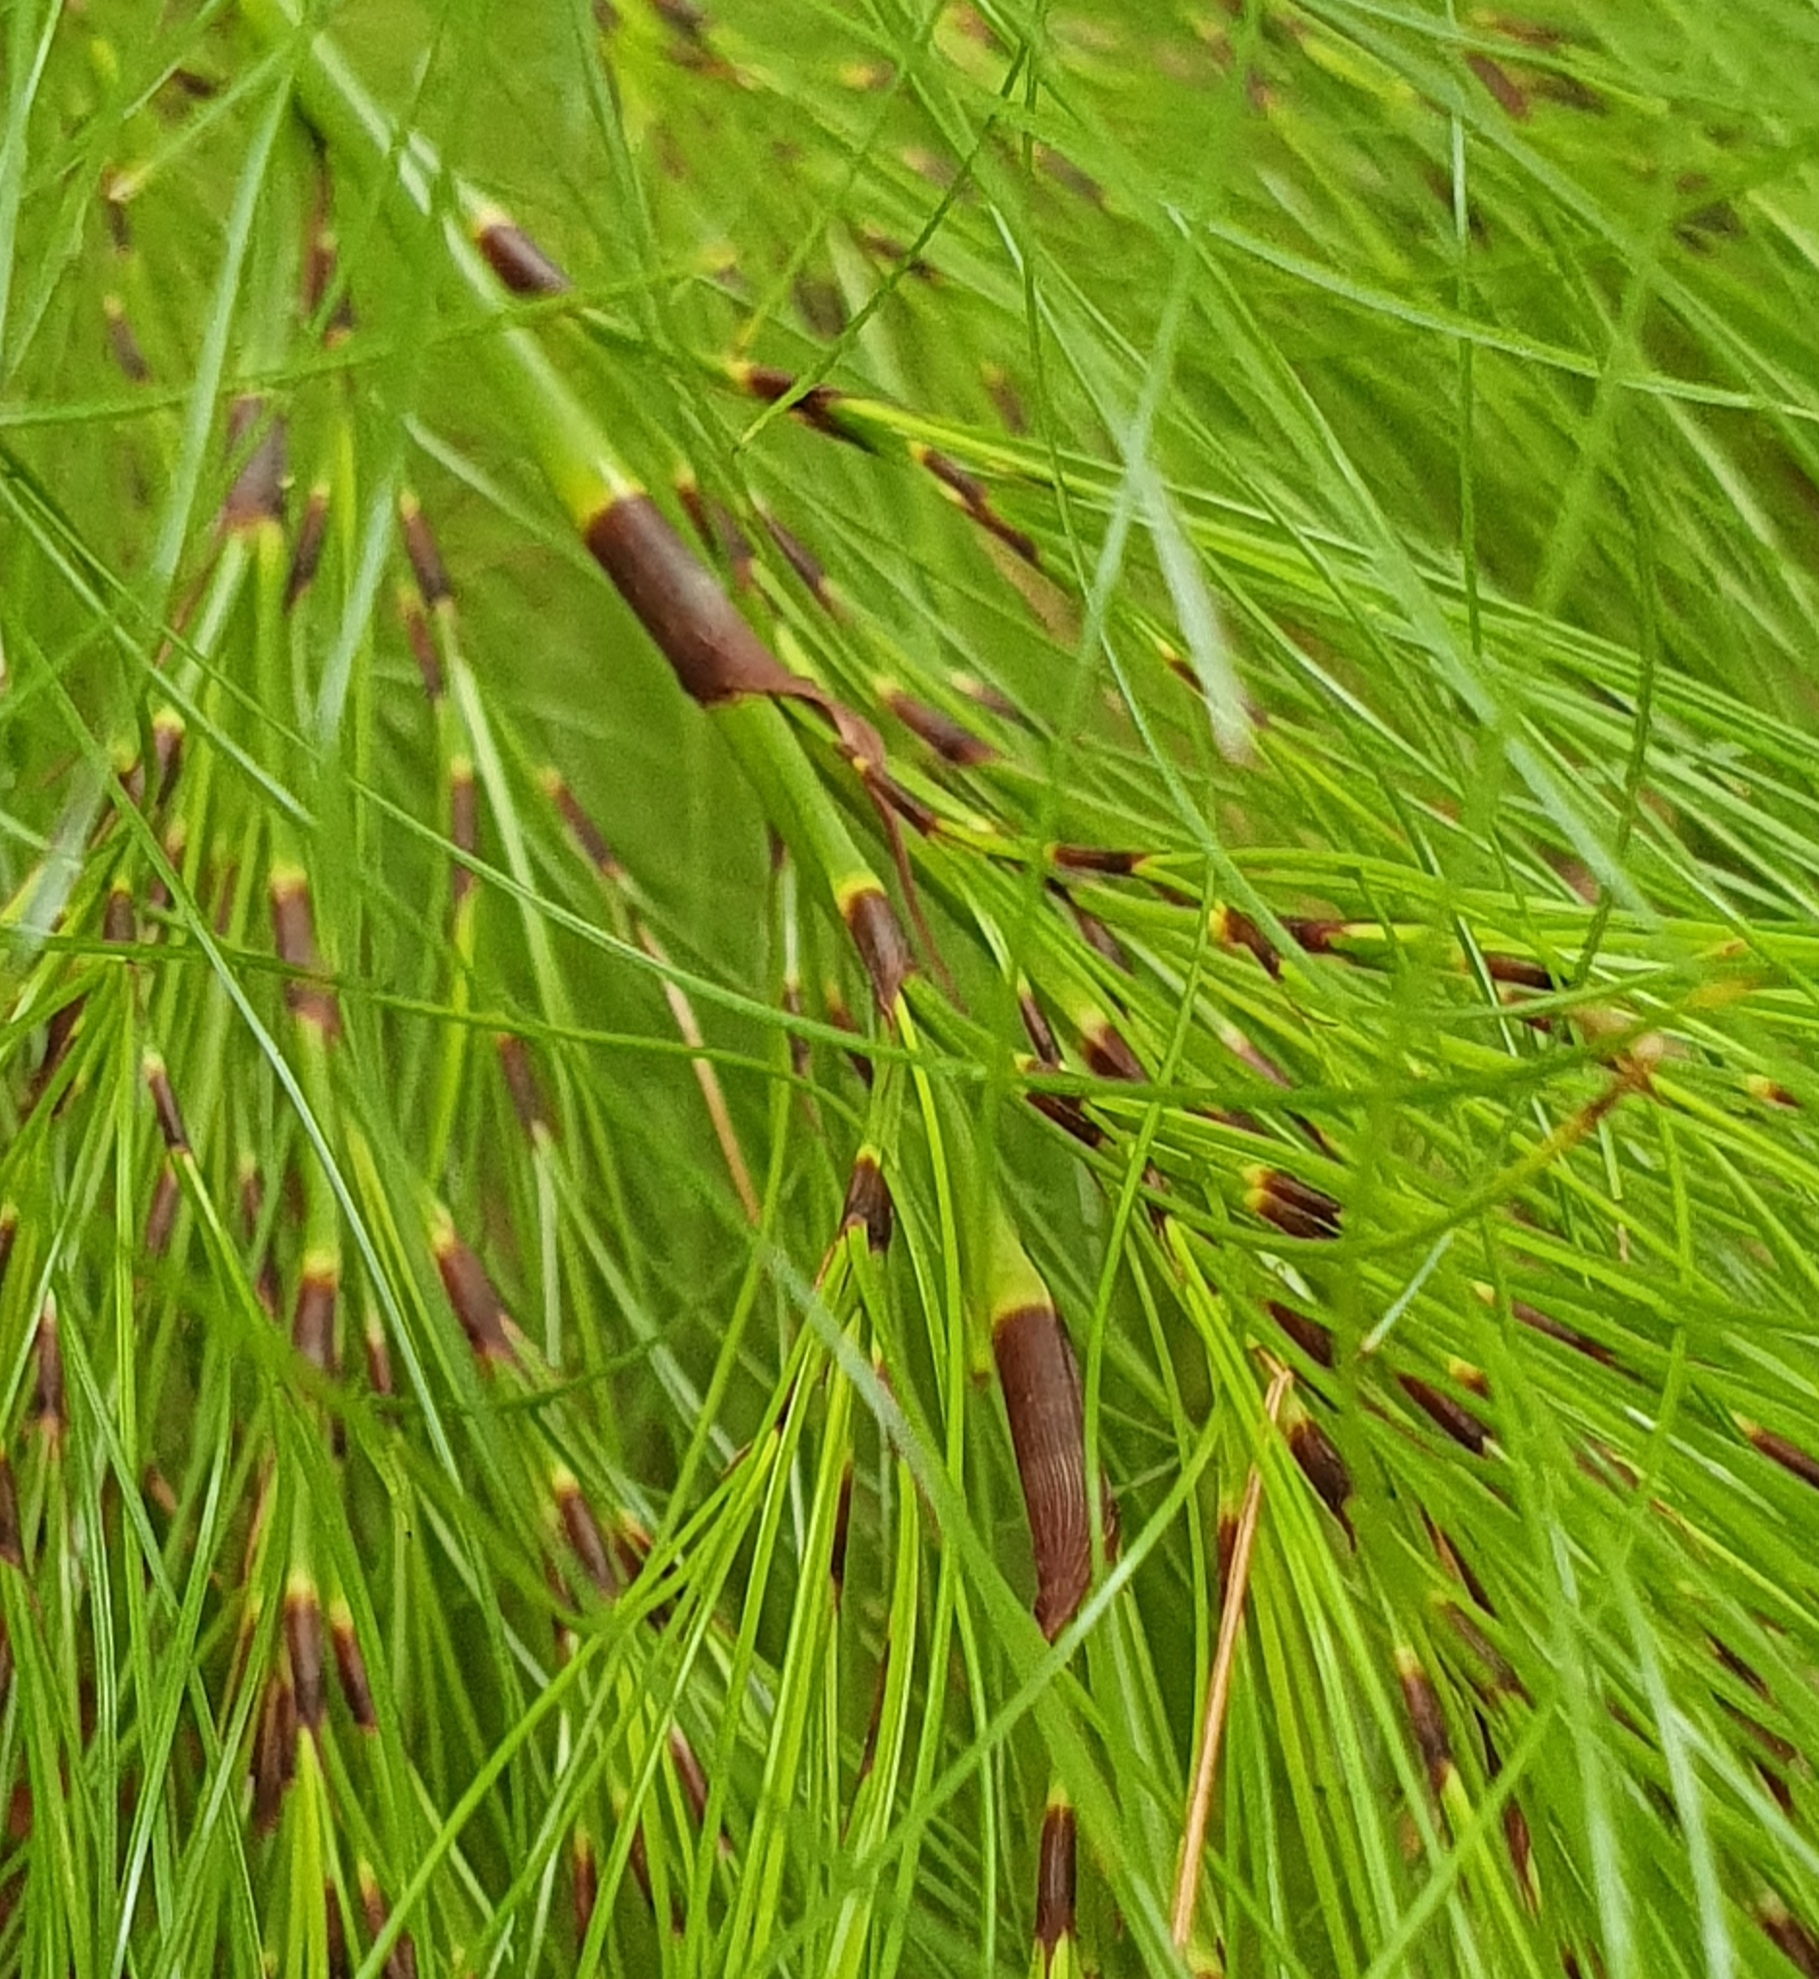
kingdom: Plantae
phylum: Tracheophyta
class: Liliopsida
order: Poales
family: Cyperaceae
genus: Caustis
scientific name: Caustis blakei
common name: Foxtail-fern
